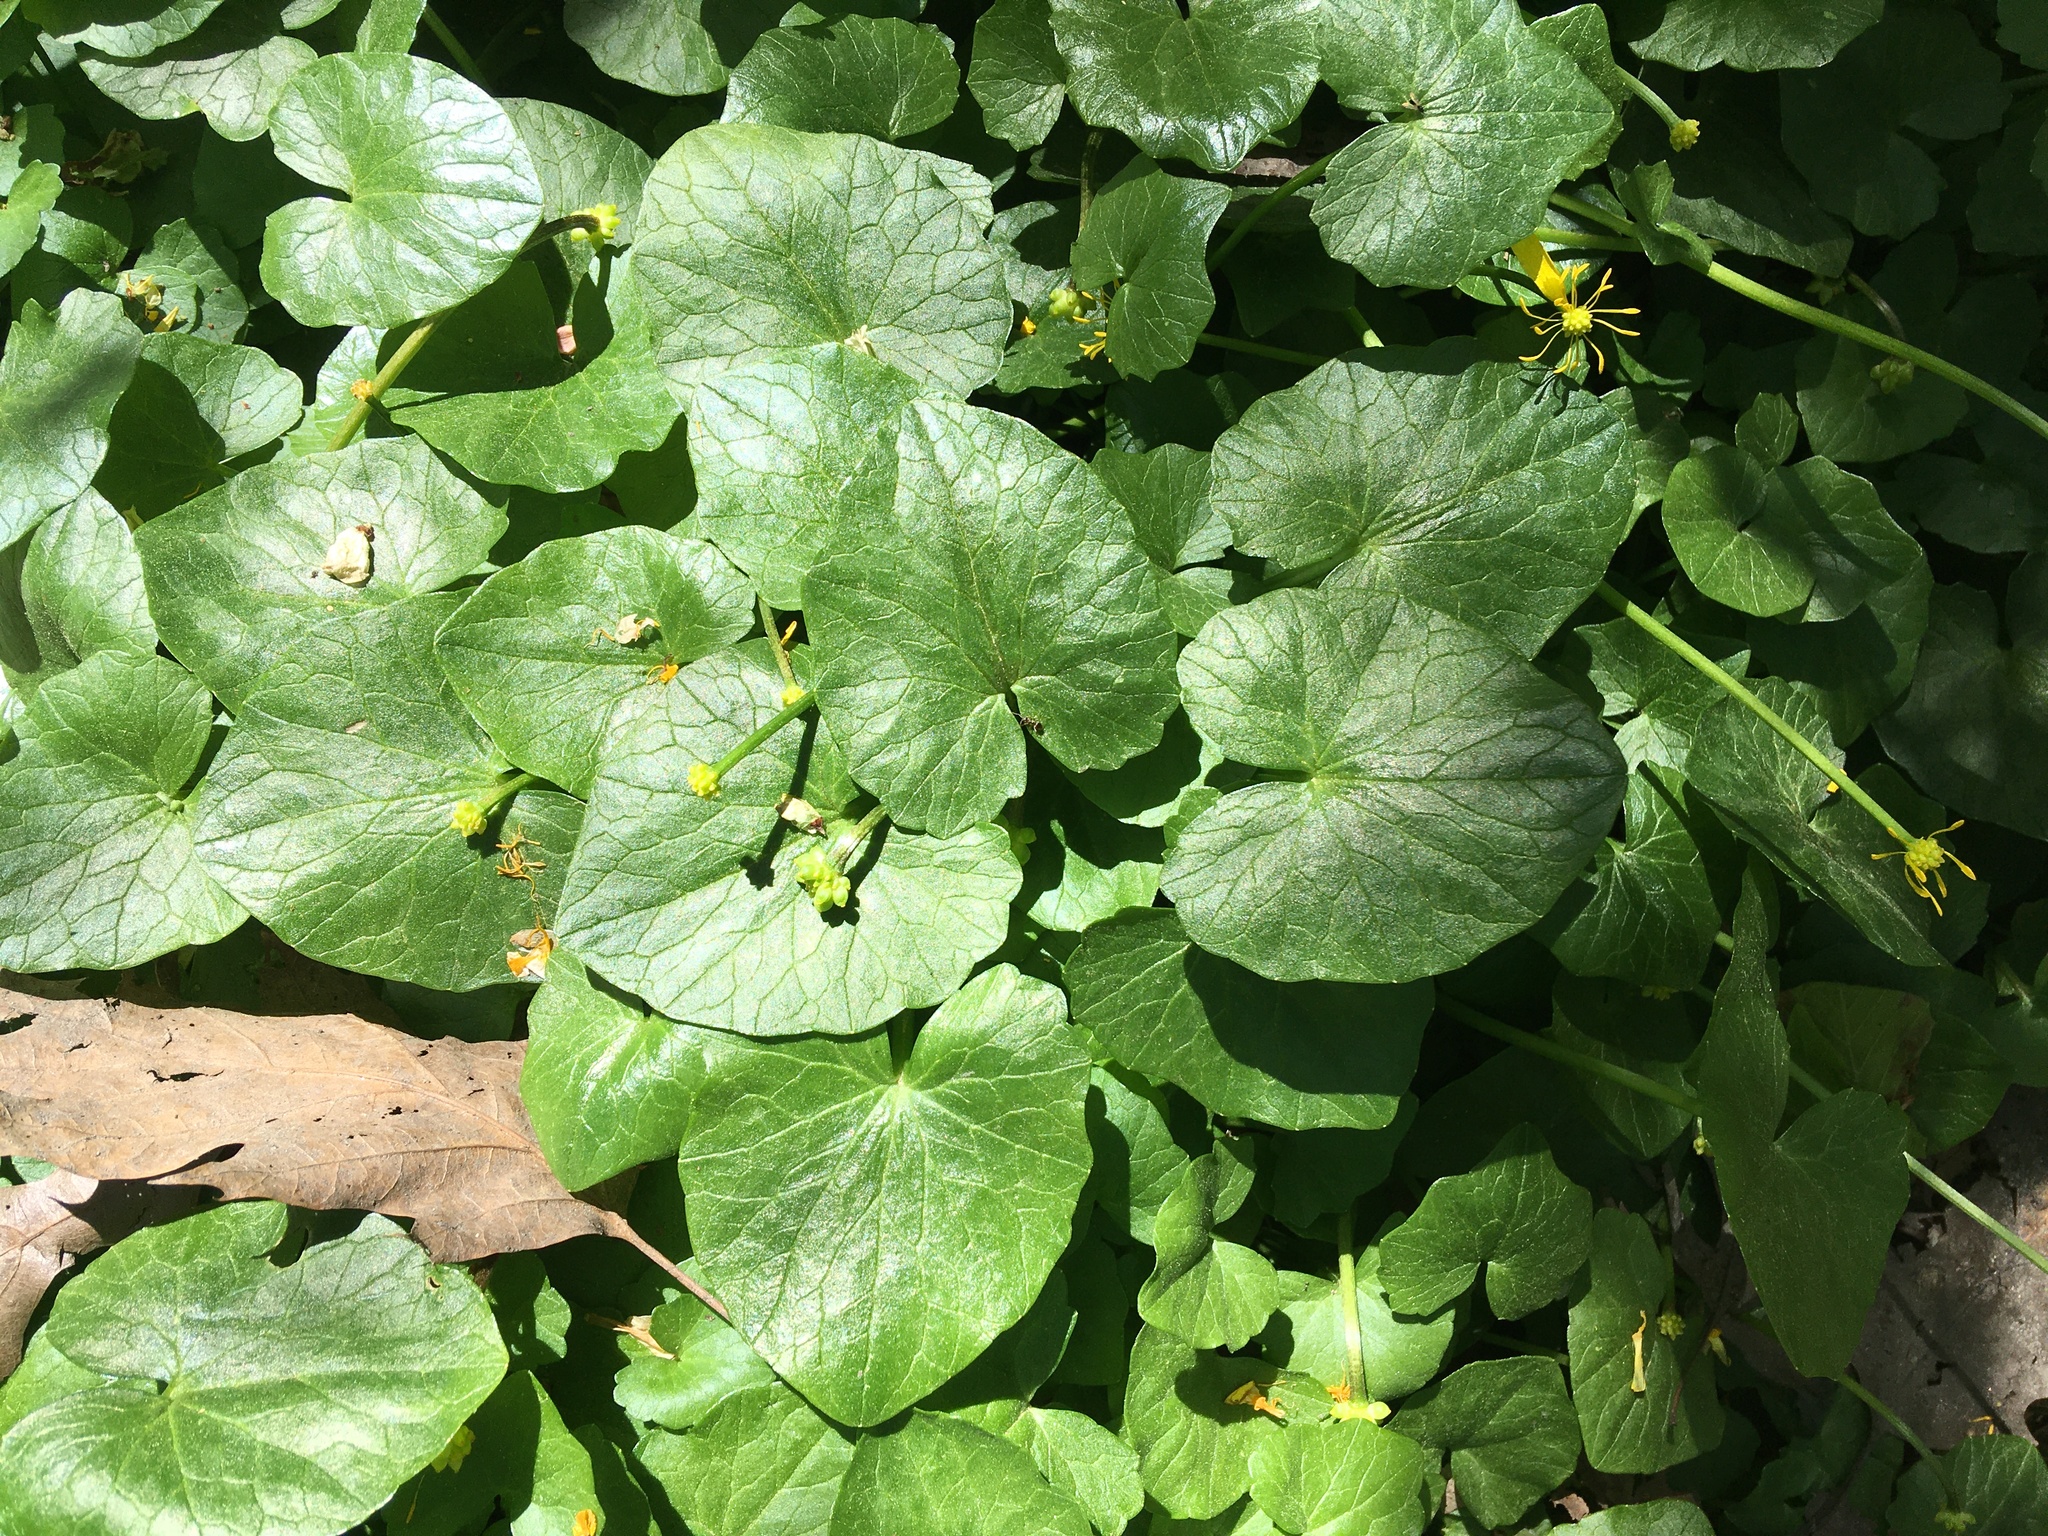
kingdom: Plantae
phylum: Tracheophyta
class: Magnoliopsida
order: Ranunculales
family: Ranunculaceae
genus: Ficaria
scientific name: Ficaria verna
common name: Lesser celandine
